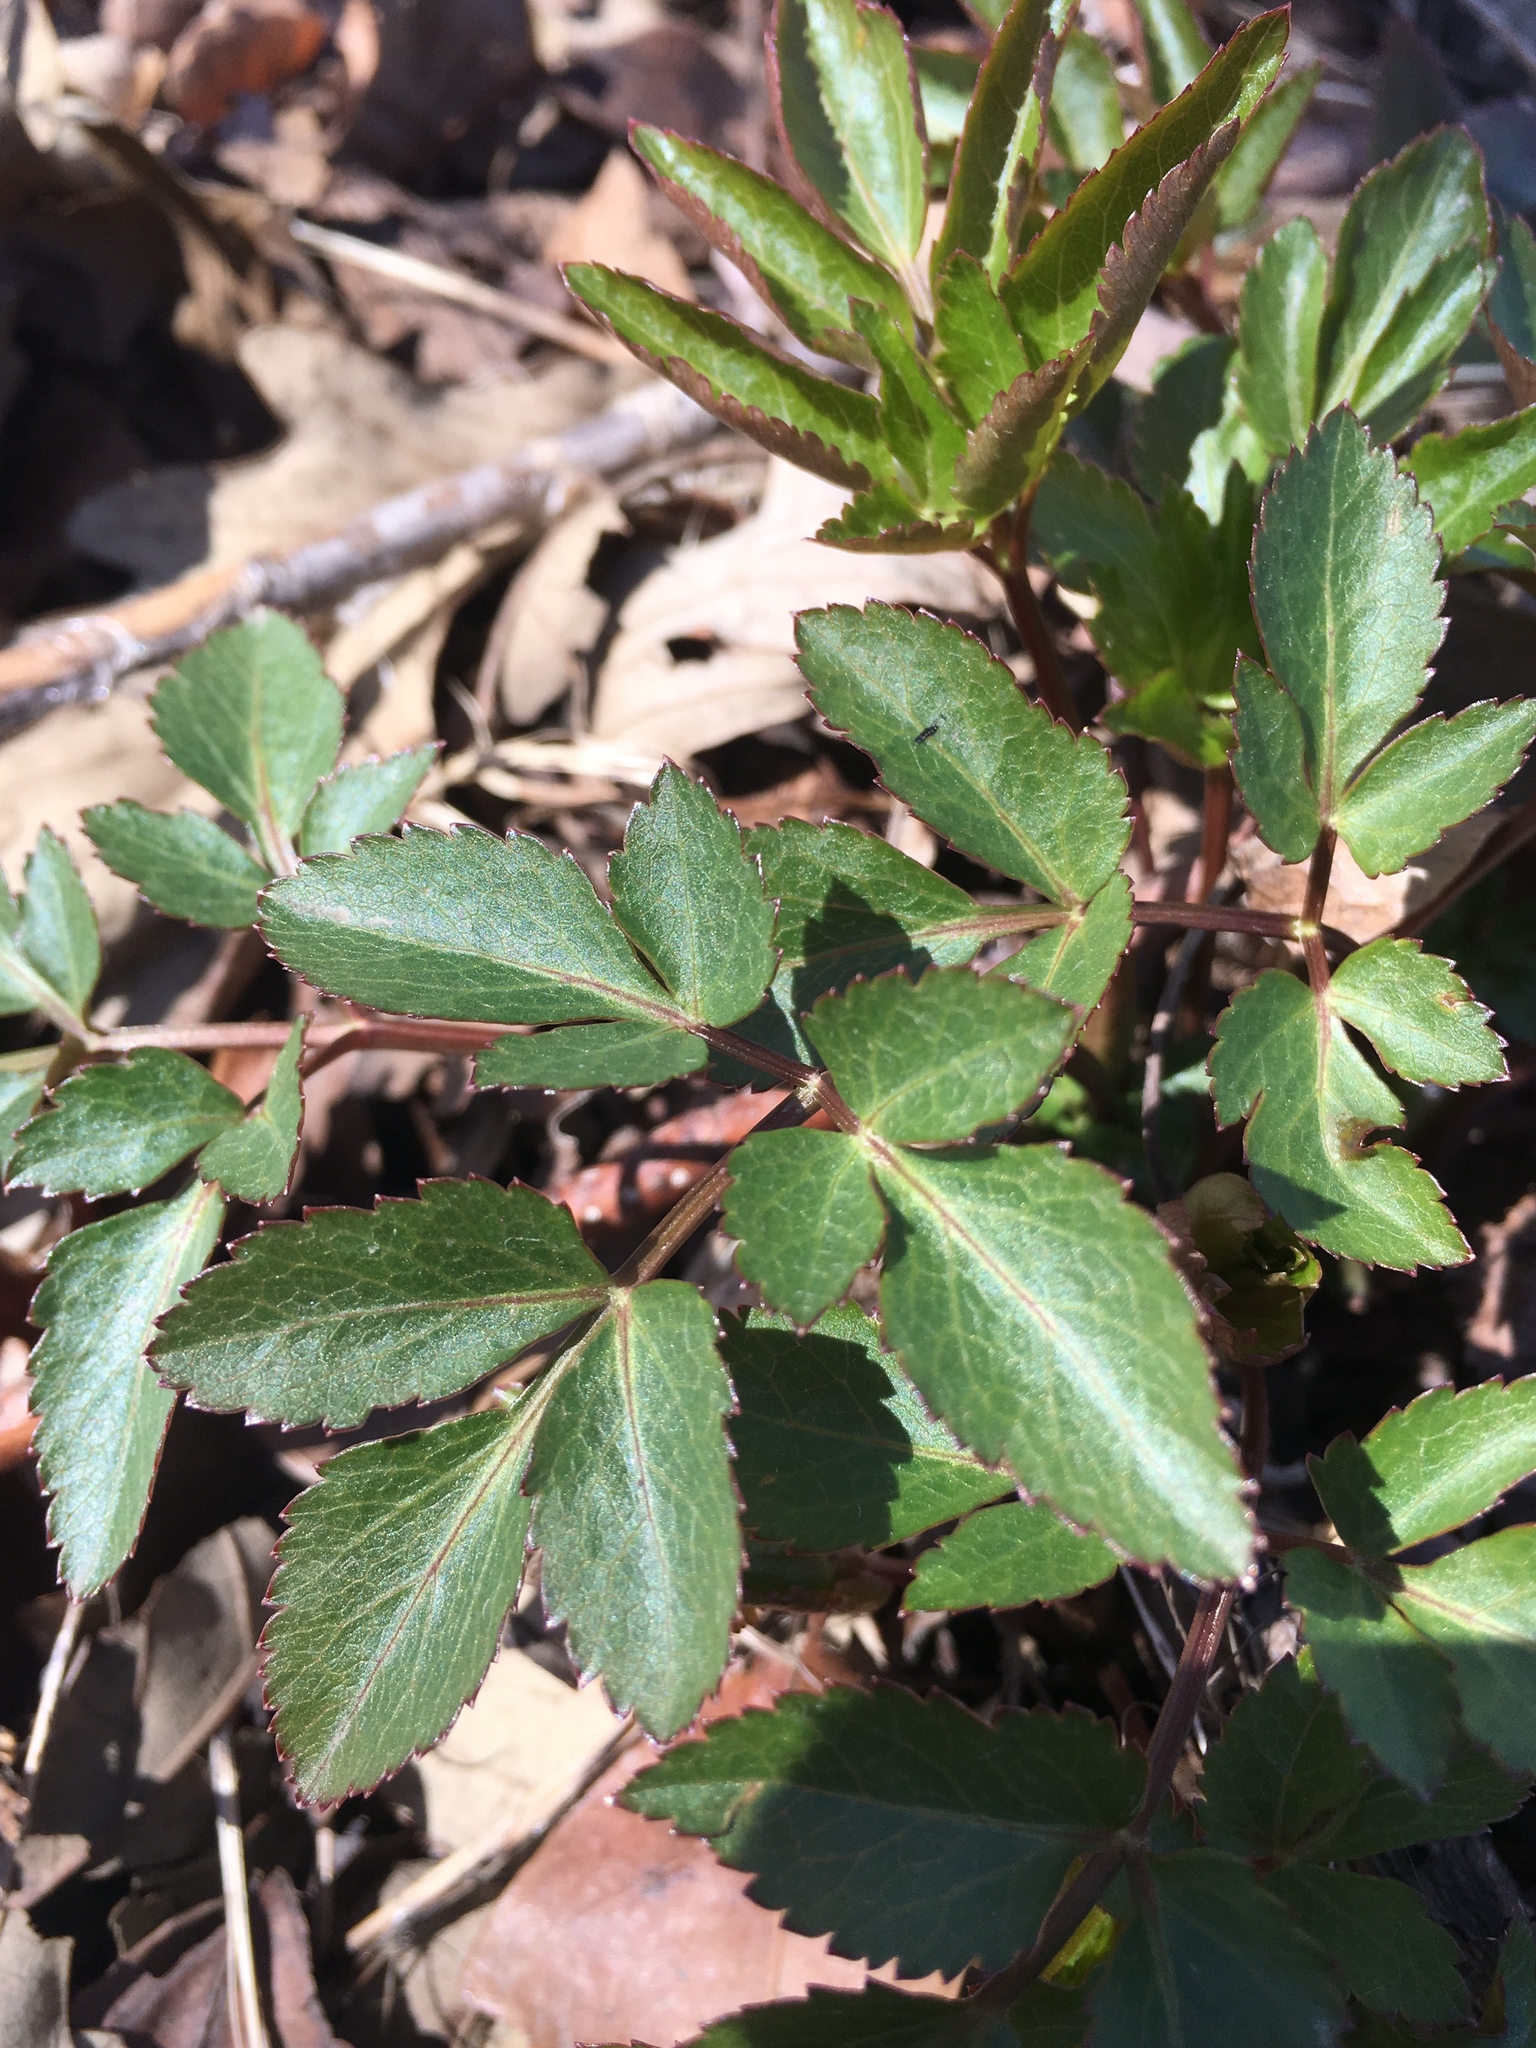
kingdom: Plantae
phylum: Tracheophyta
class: Magnoliopsida
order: Apiales
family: Apiaceae
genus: Zizia
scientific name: Zizia aurea
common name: Golden alexanders
